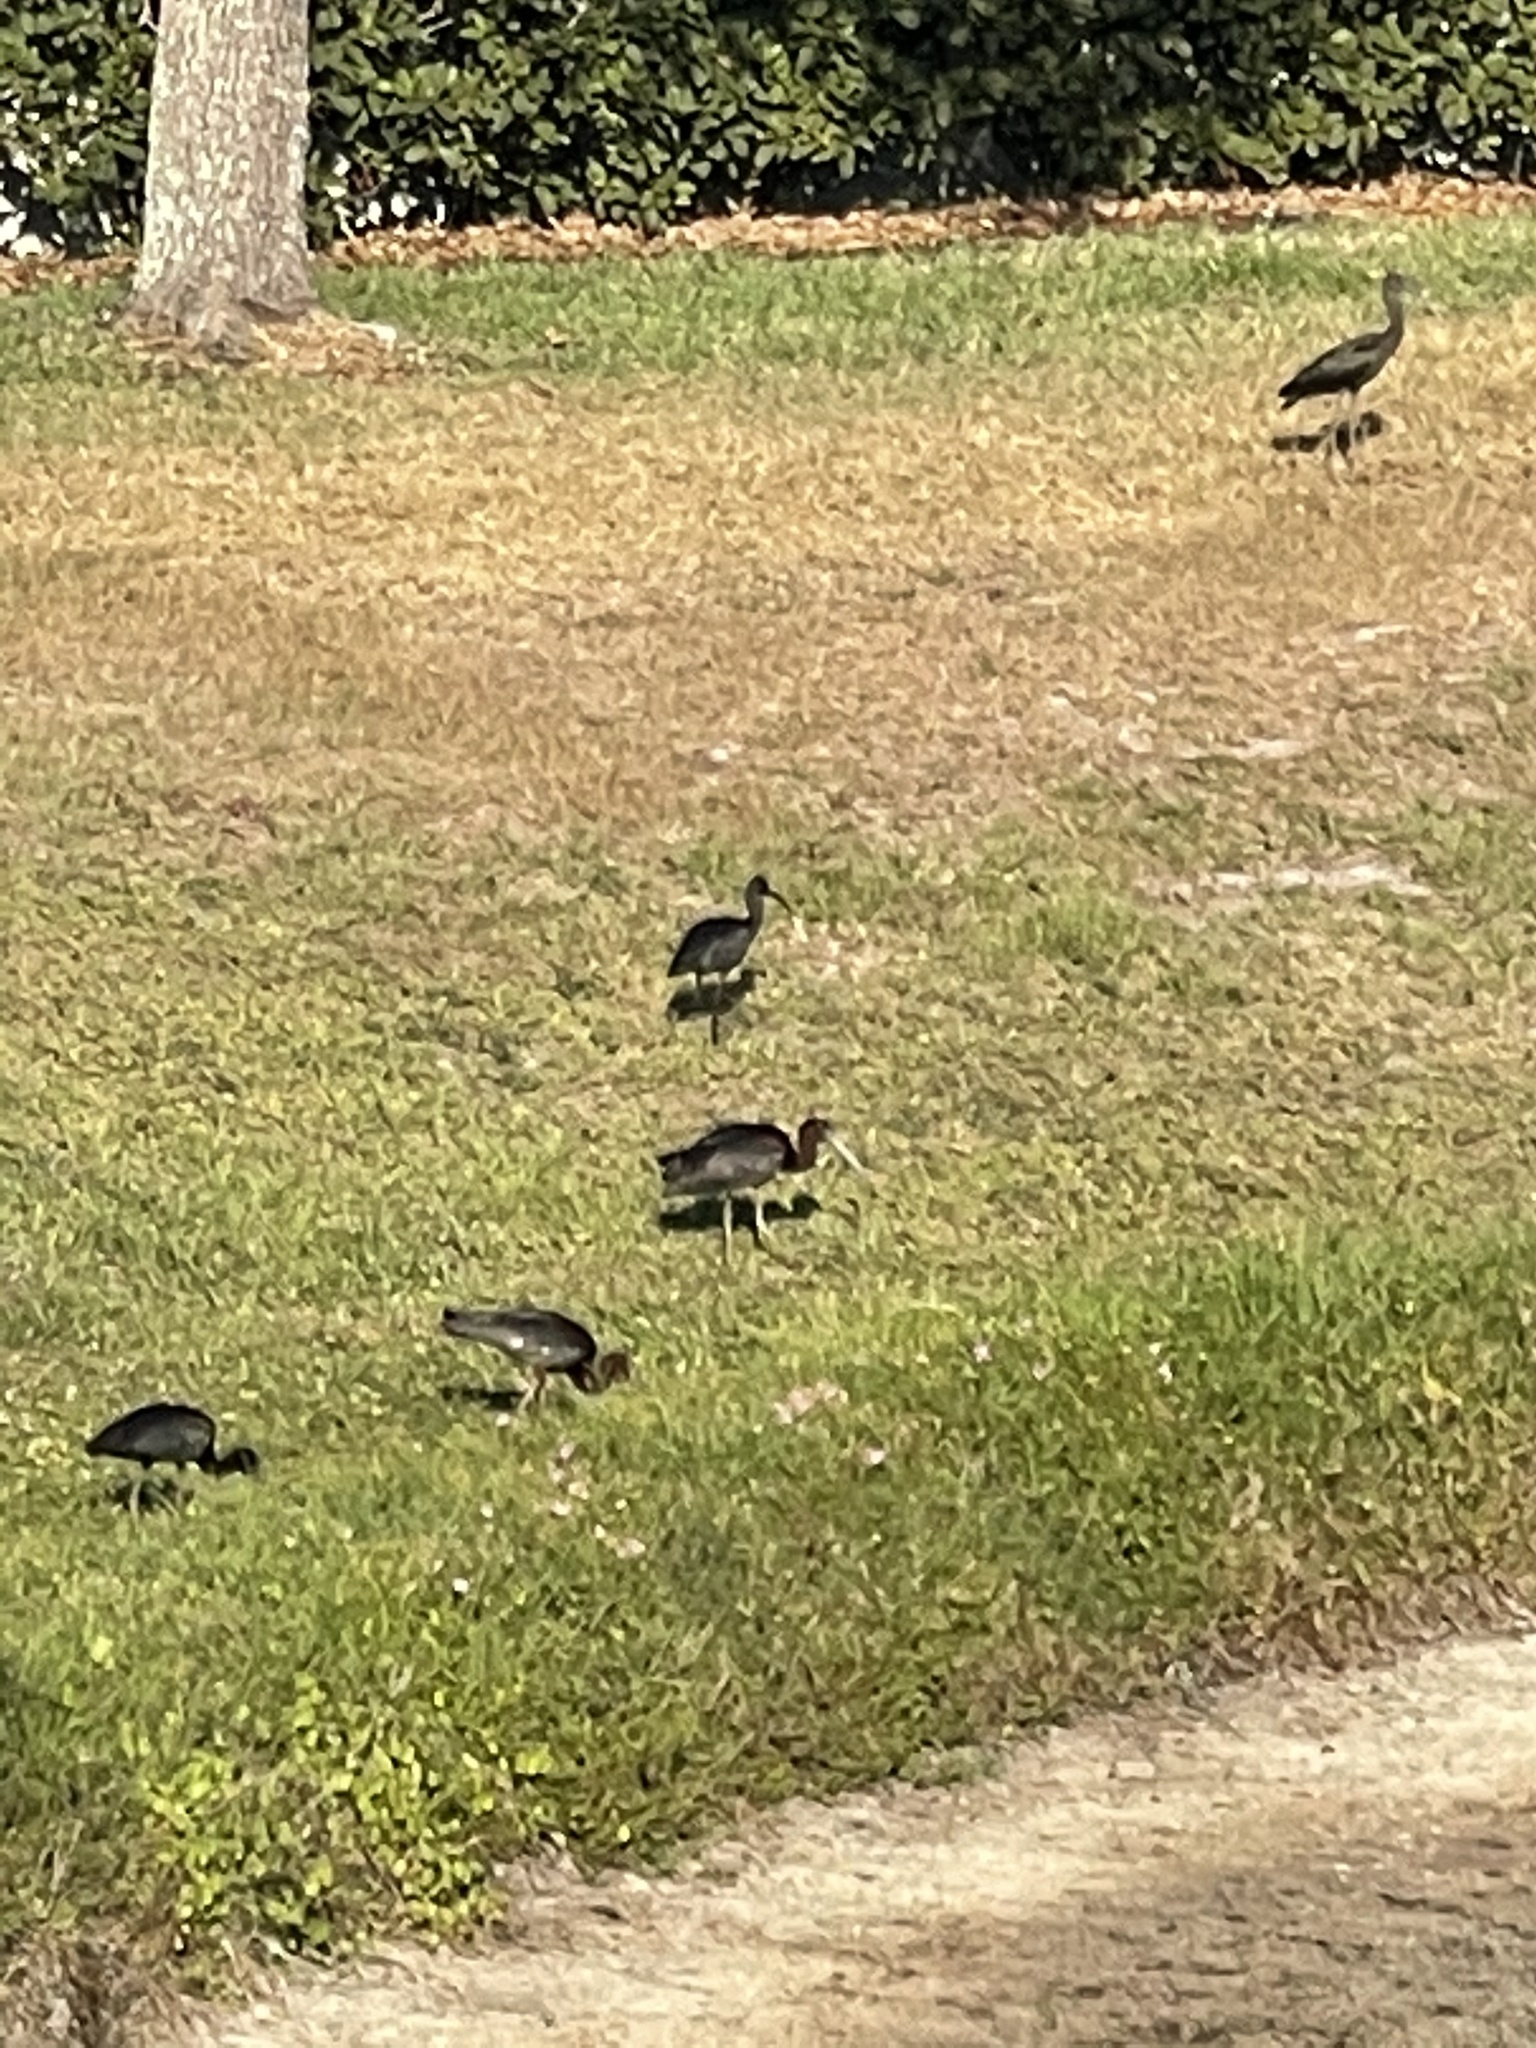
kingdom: Animalia
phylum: Chordata
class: Aves
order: Pelecaniformes
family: Threskiornithidae
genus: Plegadis
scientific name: Plegadis falcinellus
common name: Glossy ibis
